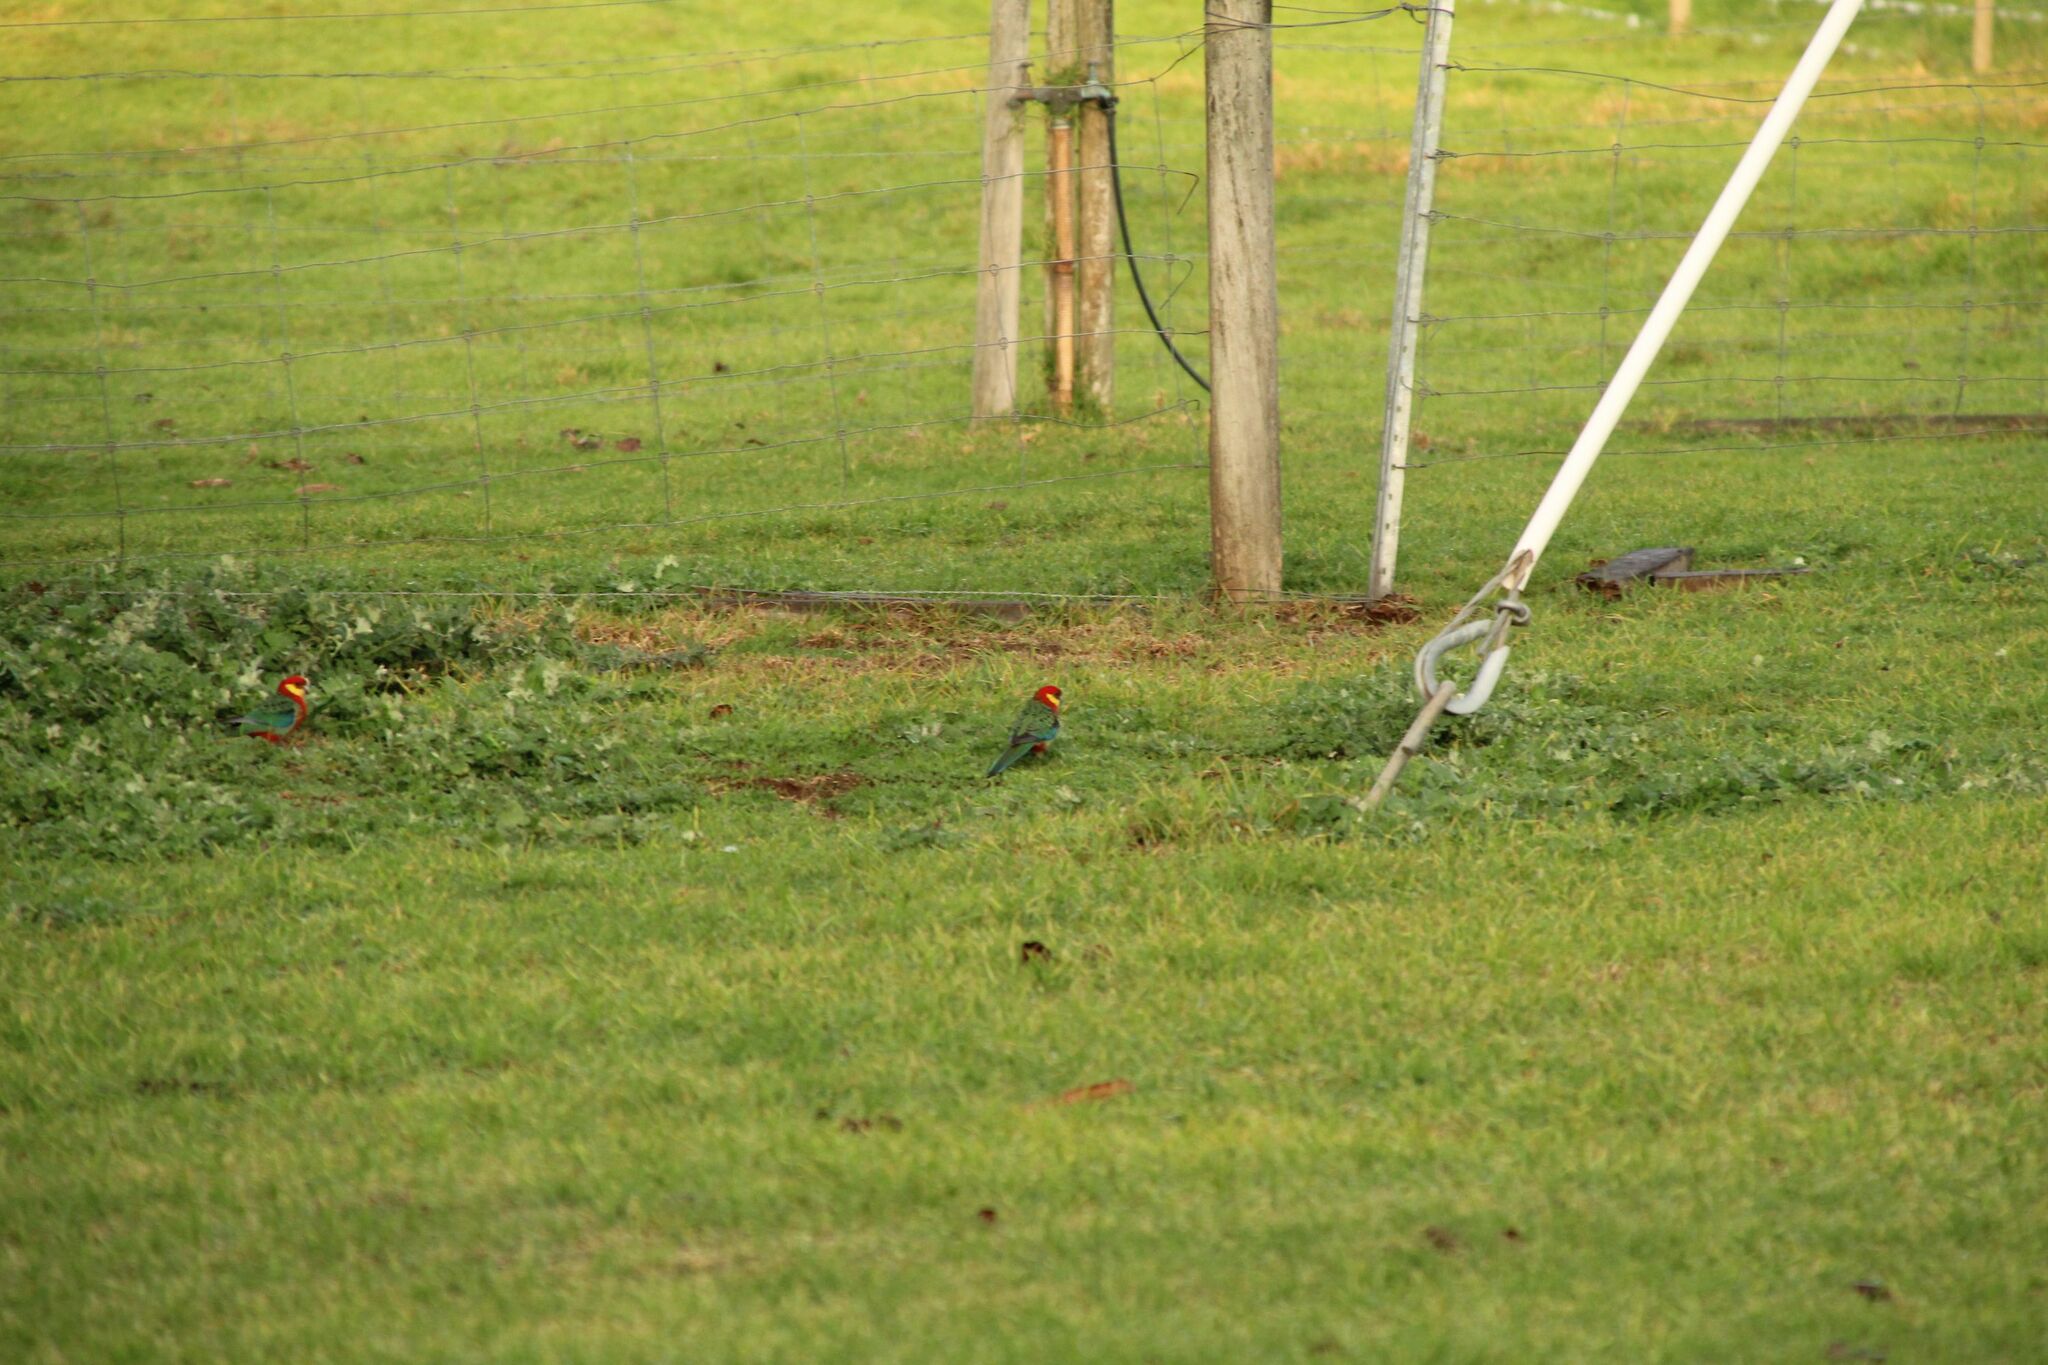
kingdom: Animalia
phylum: Chordata
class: Aves
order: Psittaciformes
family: Psittacidae
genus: Platycercus
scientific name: Platycercus icterotis
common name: Western rosella
